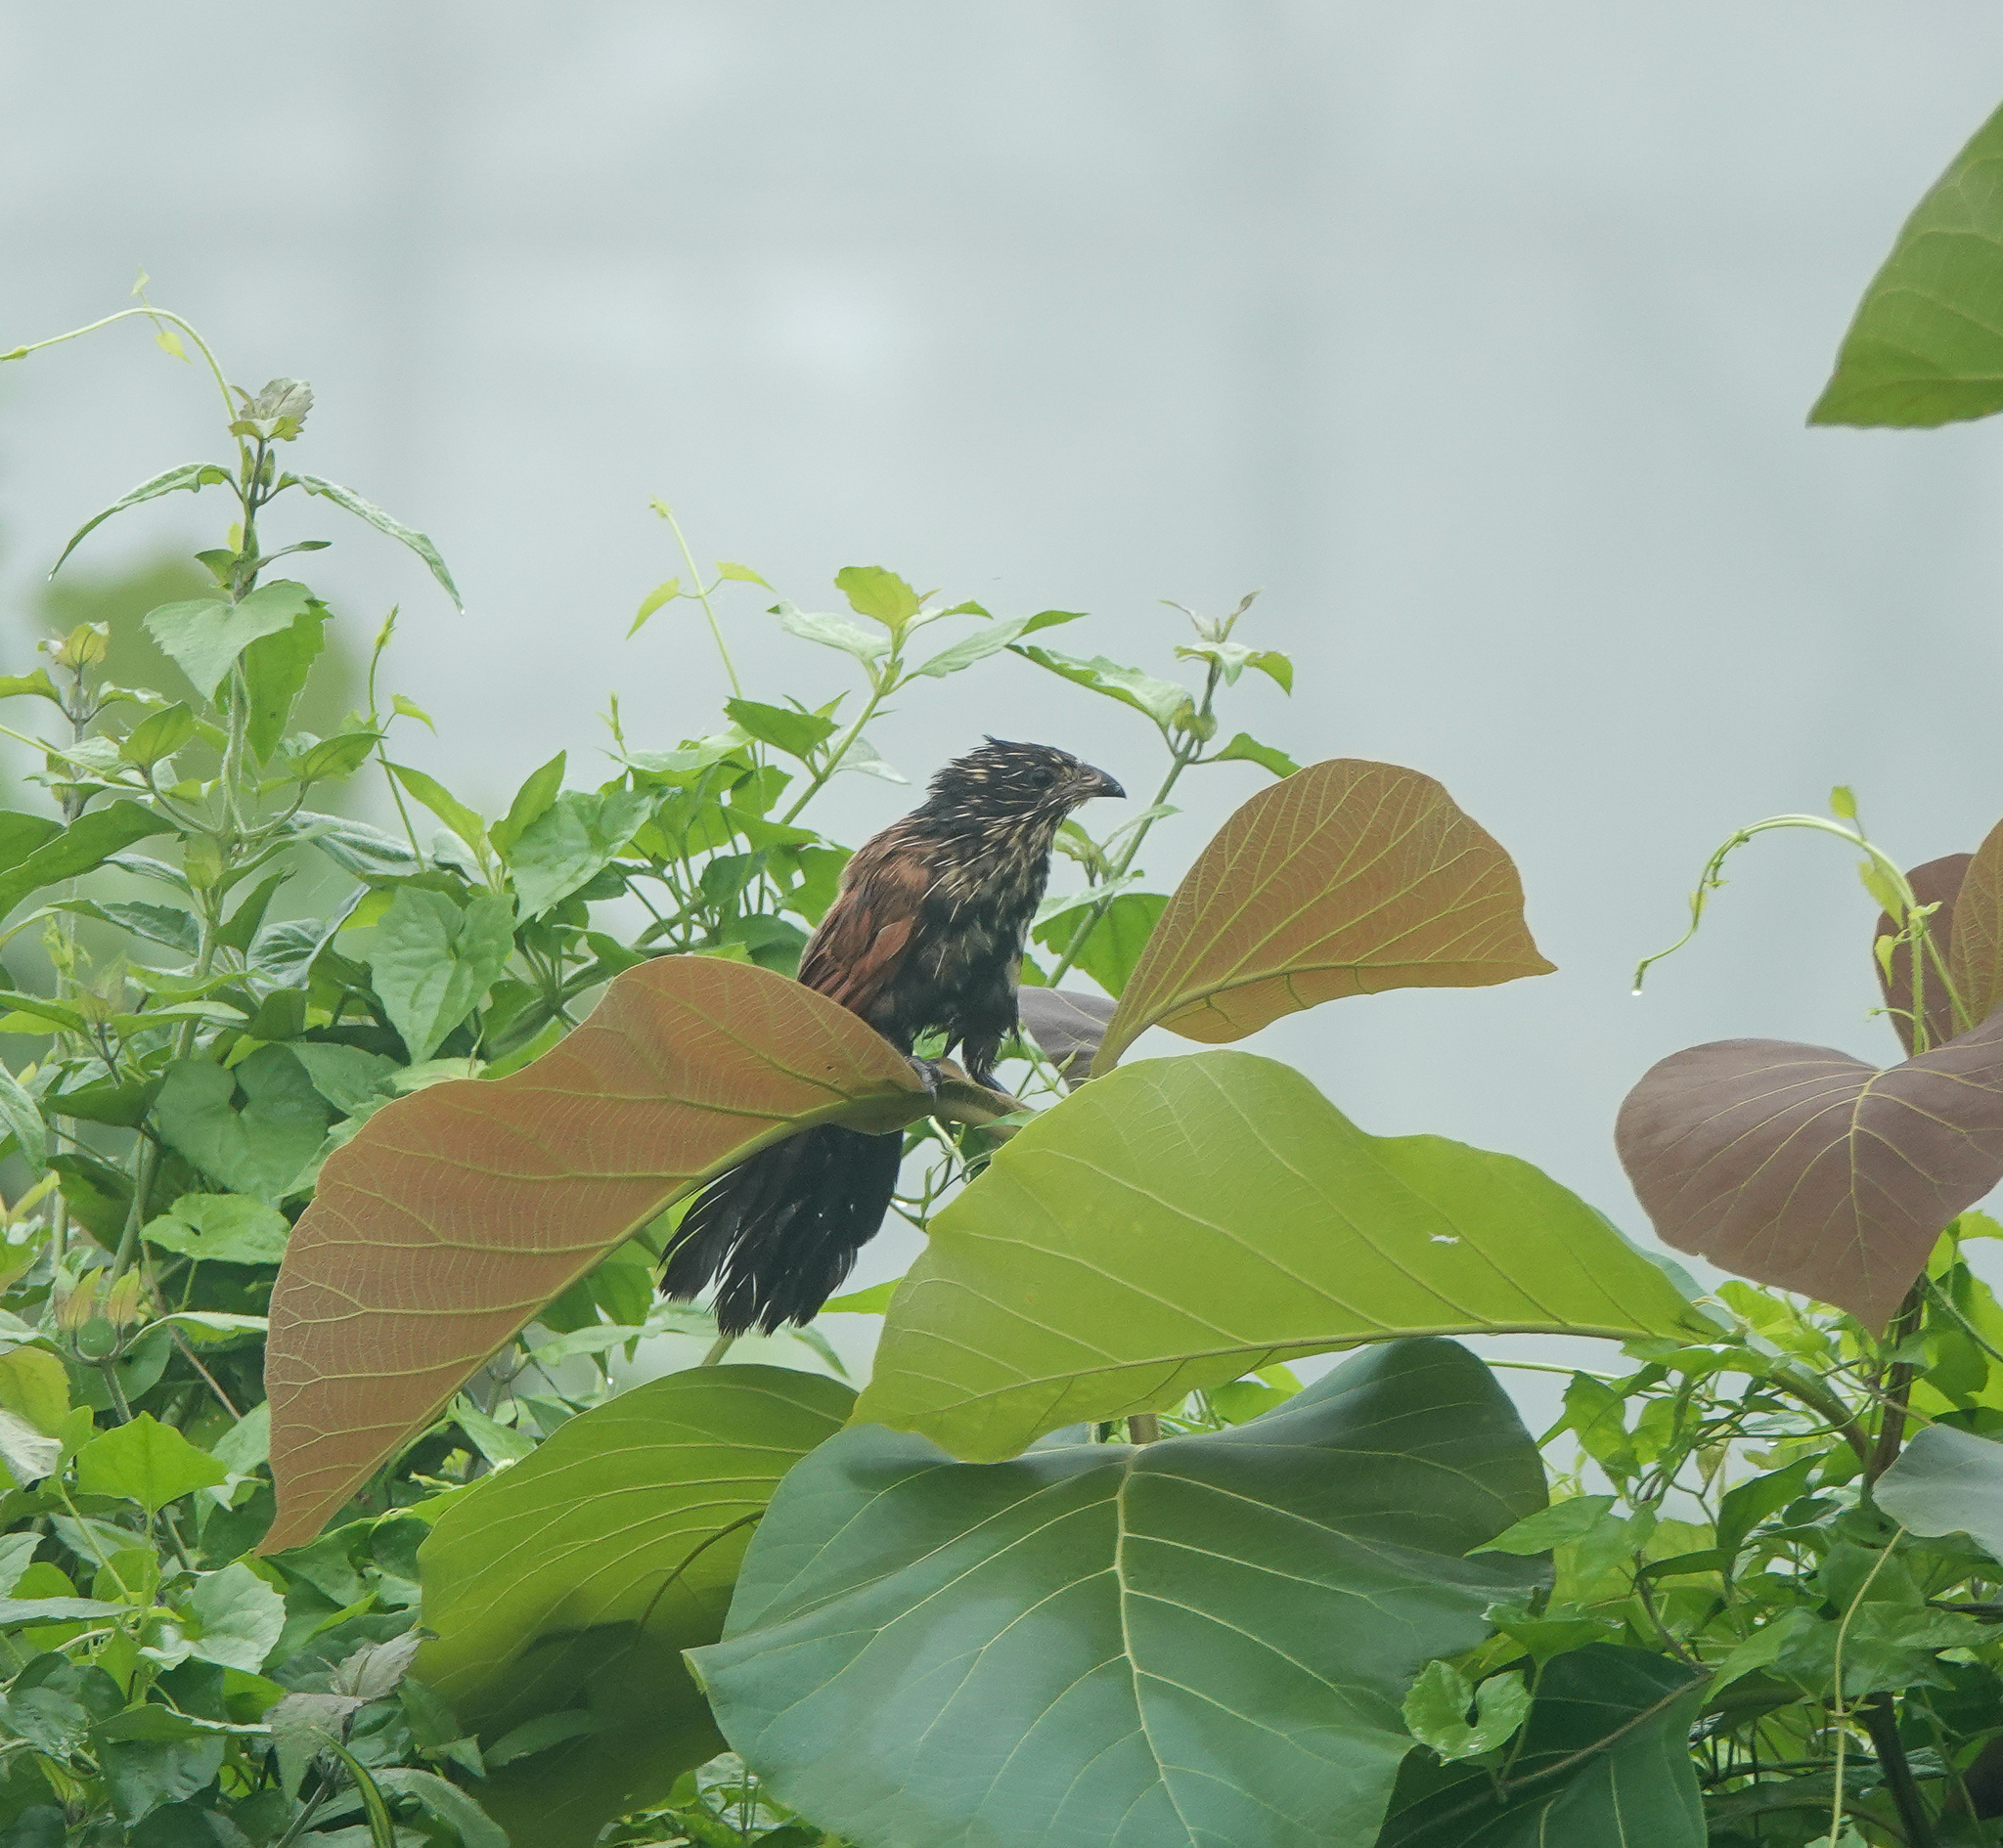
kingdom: Animalia
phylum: Chordata
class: Aves
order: Cuculiformes
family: Cuculidae
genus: Centropus
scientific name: Centropus bengalensis
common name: Lesser coucal
